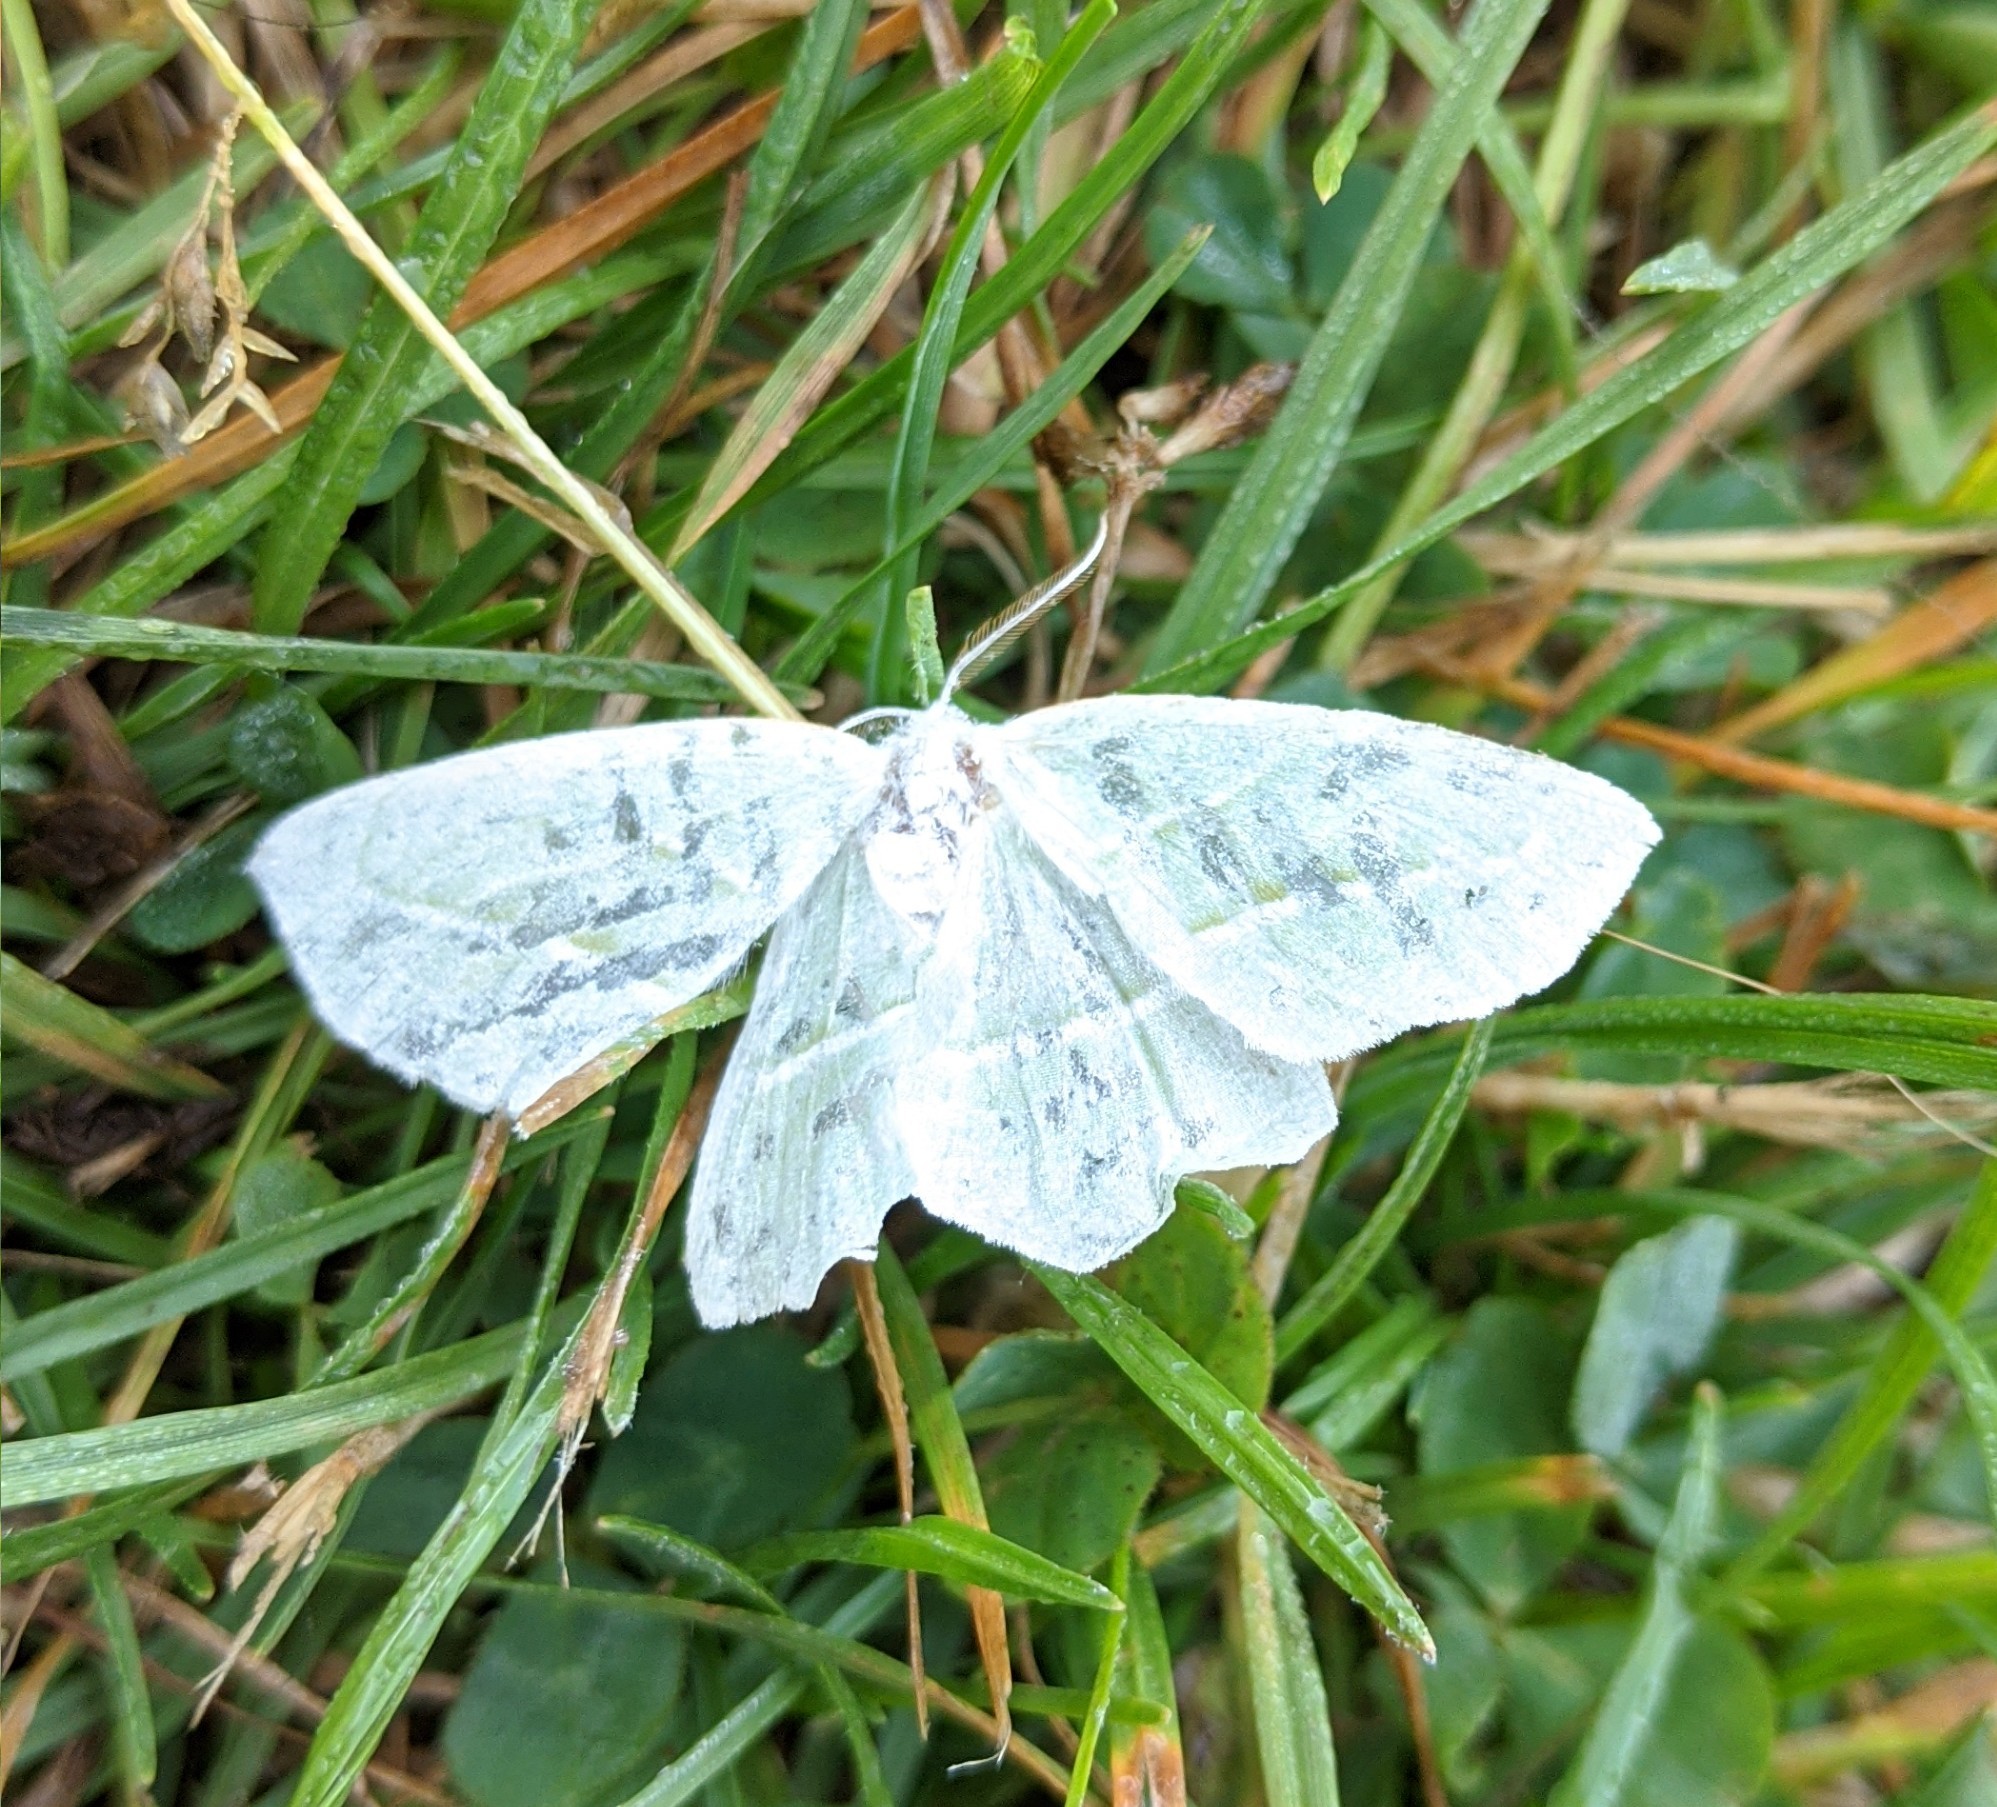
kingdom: Animalia
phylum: Arthropoda
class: Insecta
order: Lepidoptera
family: Geometridae
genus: Campaea
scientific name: Campaea perlata
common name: Fringed looper
